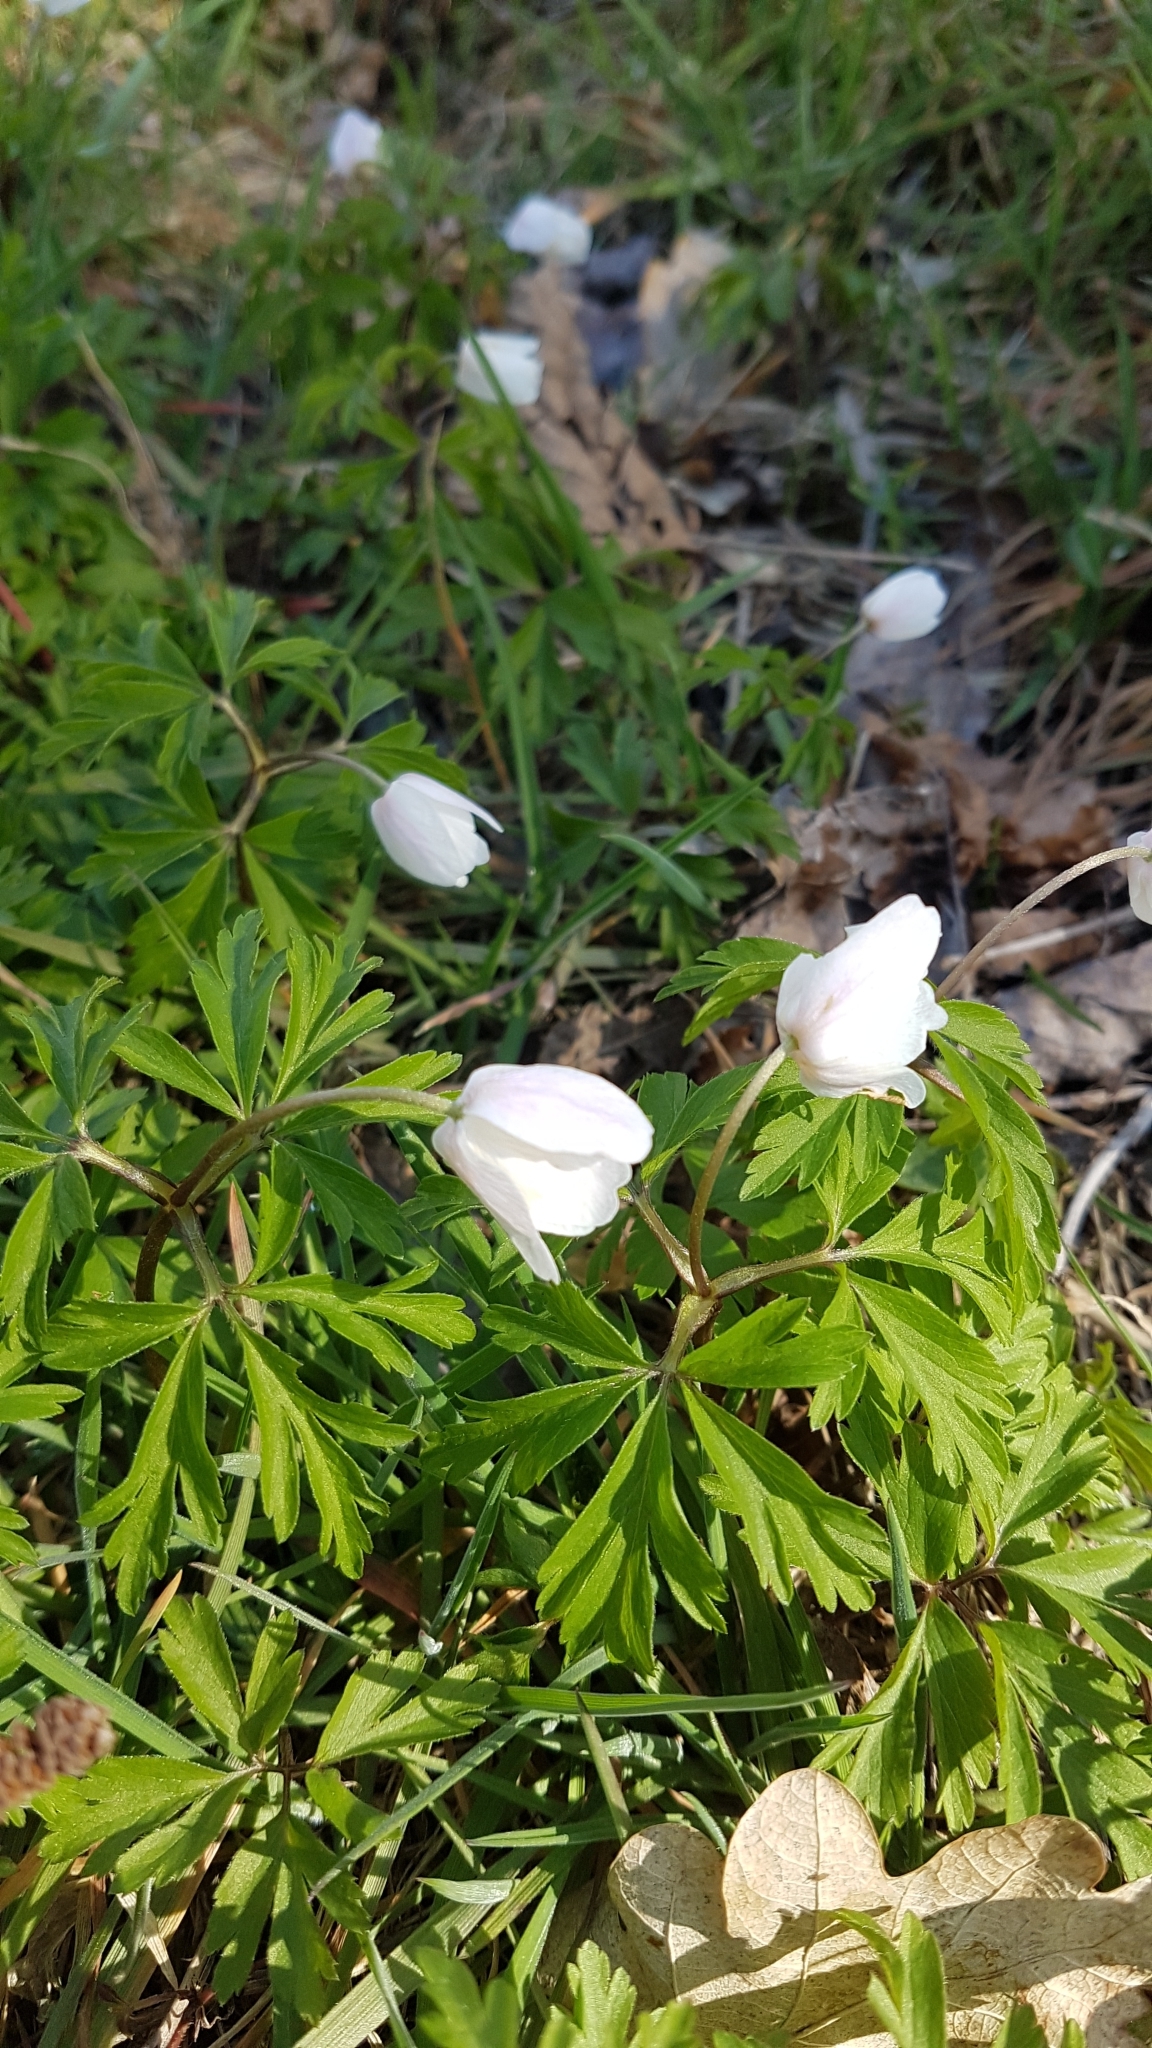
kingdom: Plantae
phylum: Tracheophyta
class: Magnoliopsida
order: Ranunculales
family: Ranunculaceae
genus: Anemone
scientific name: Anemone nemorosa
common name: Wood anemone
